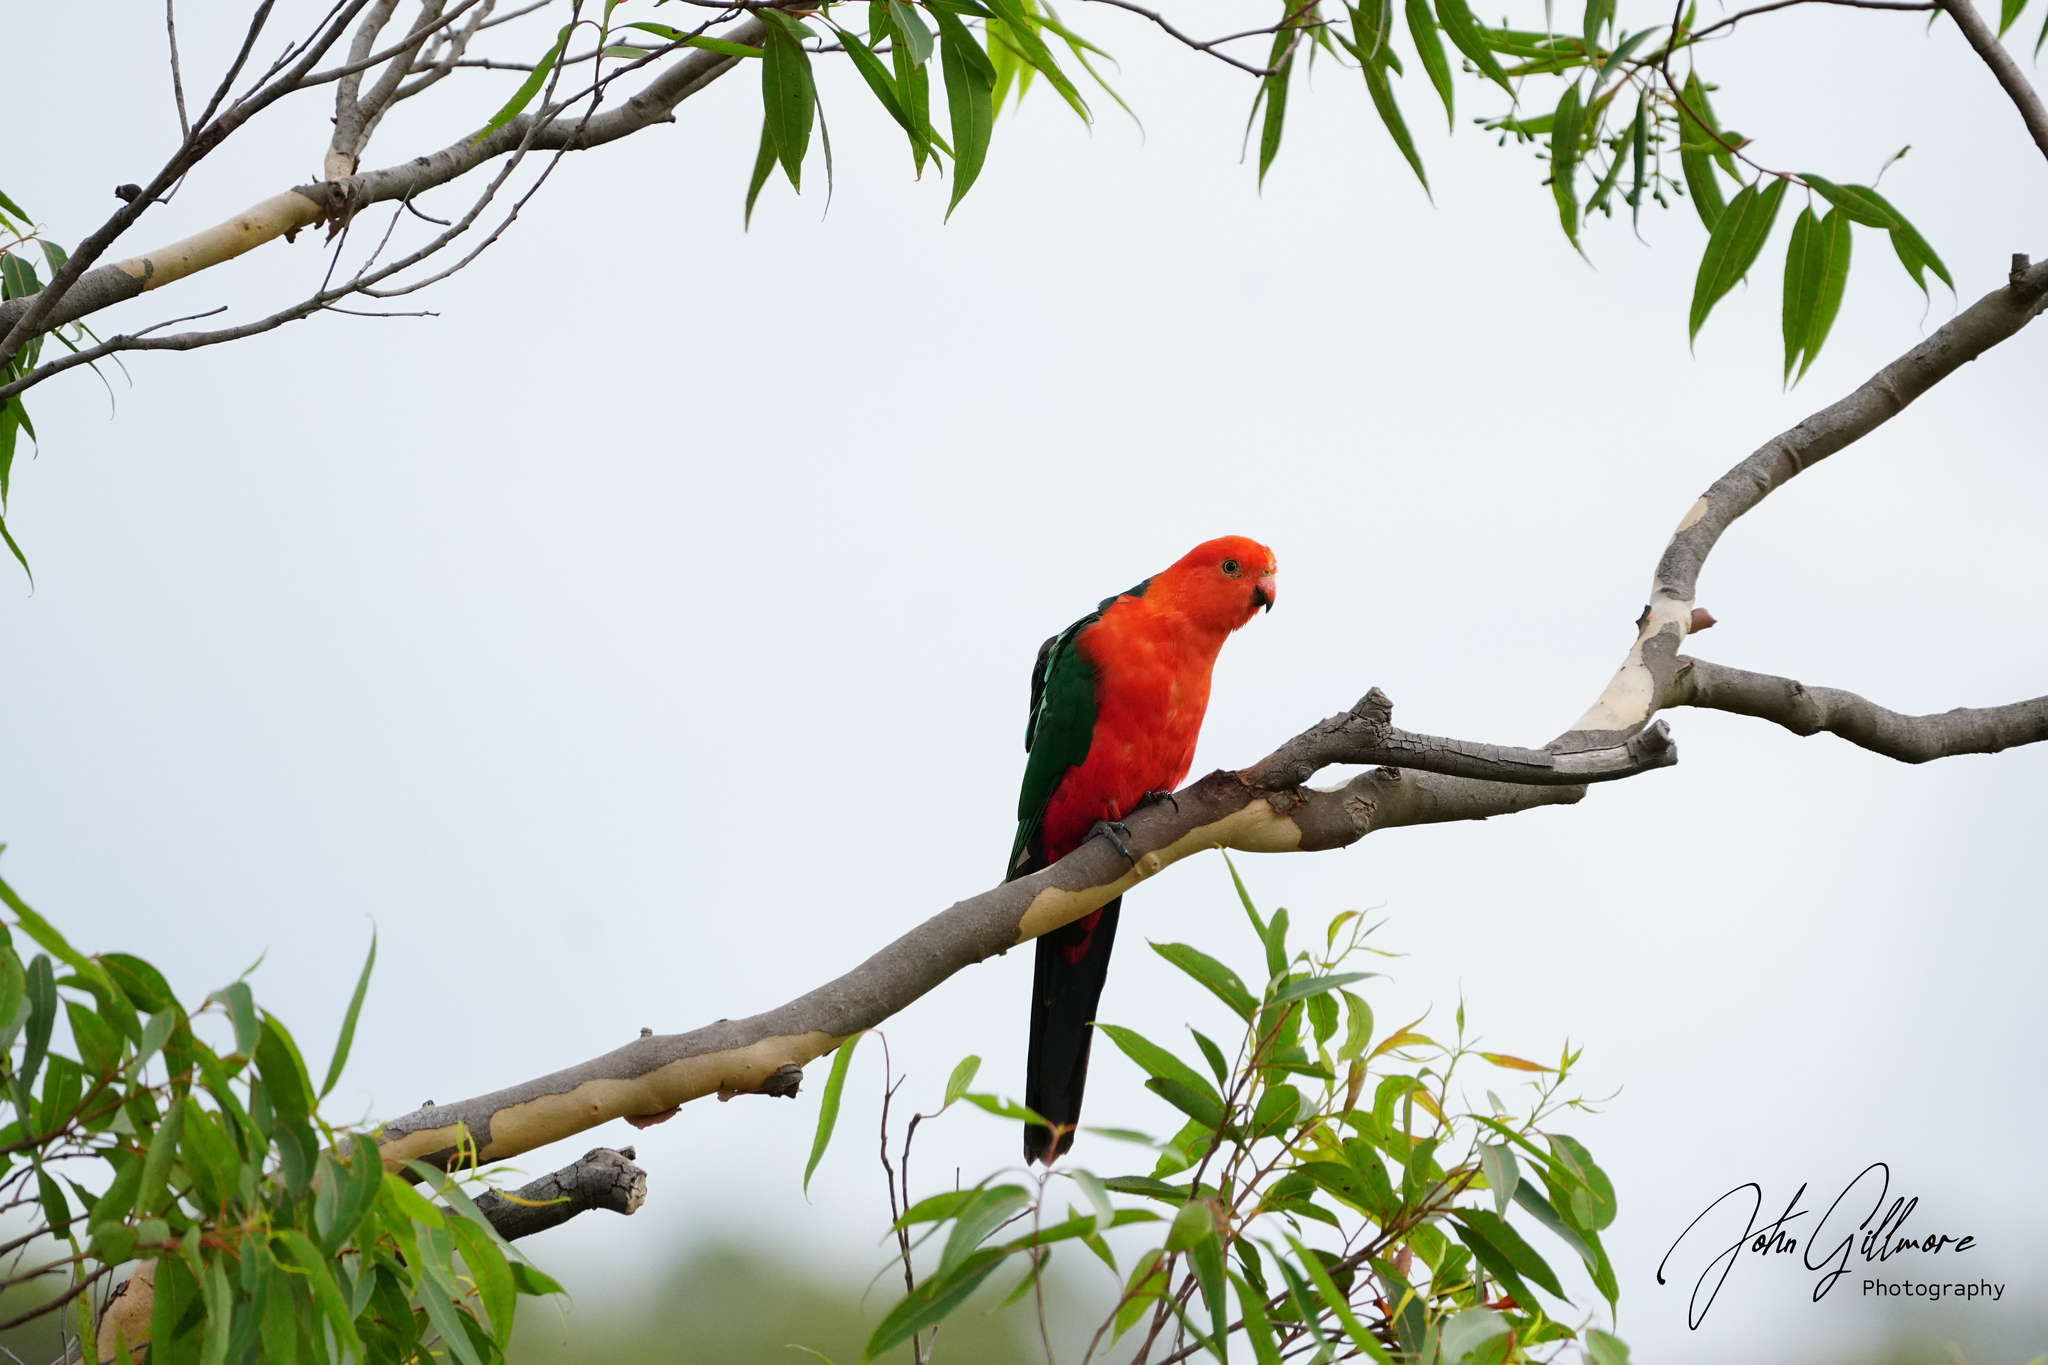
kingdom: Animalia
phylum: Chordata
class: Aves
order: Psittaciformes
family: Psittacidae
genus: Alisterus
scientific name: Alisterus scapularis
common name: Australian king parrot
